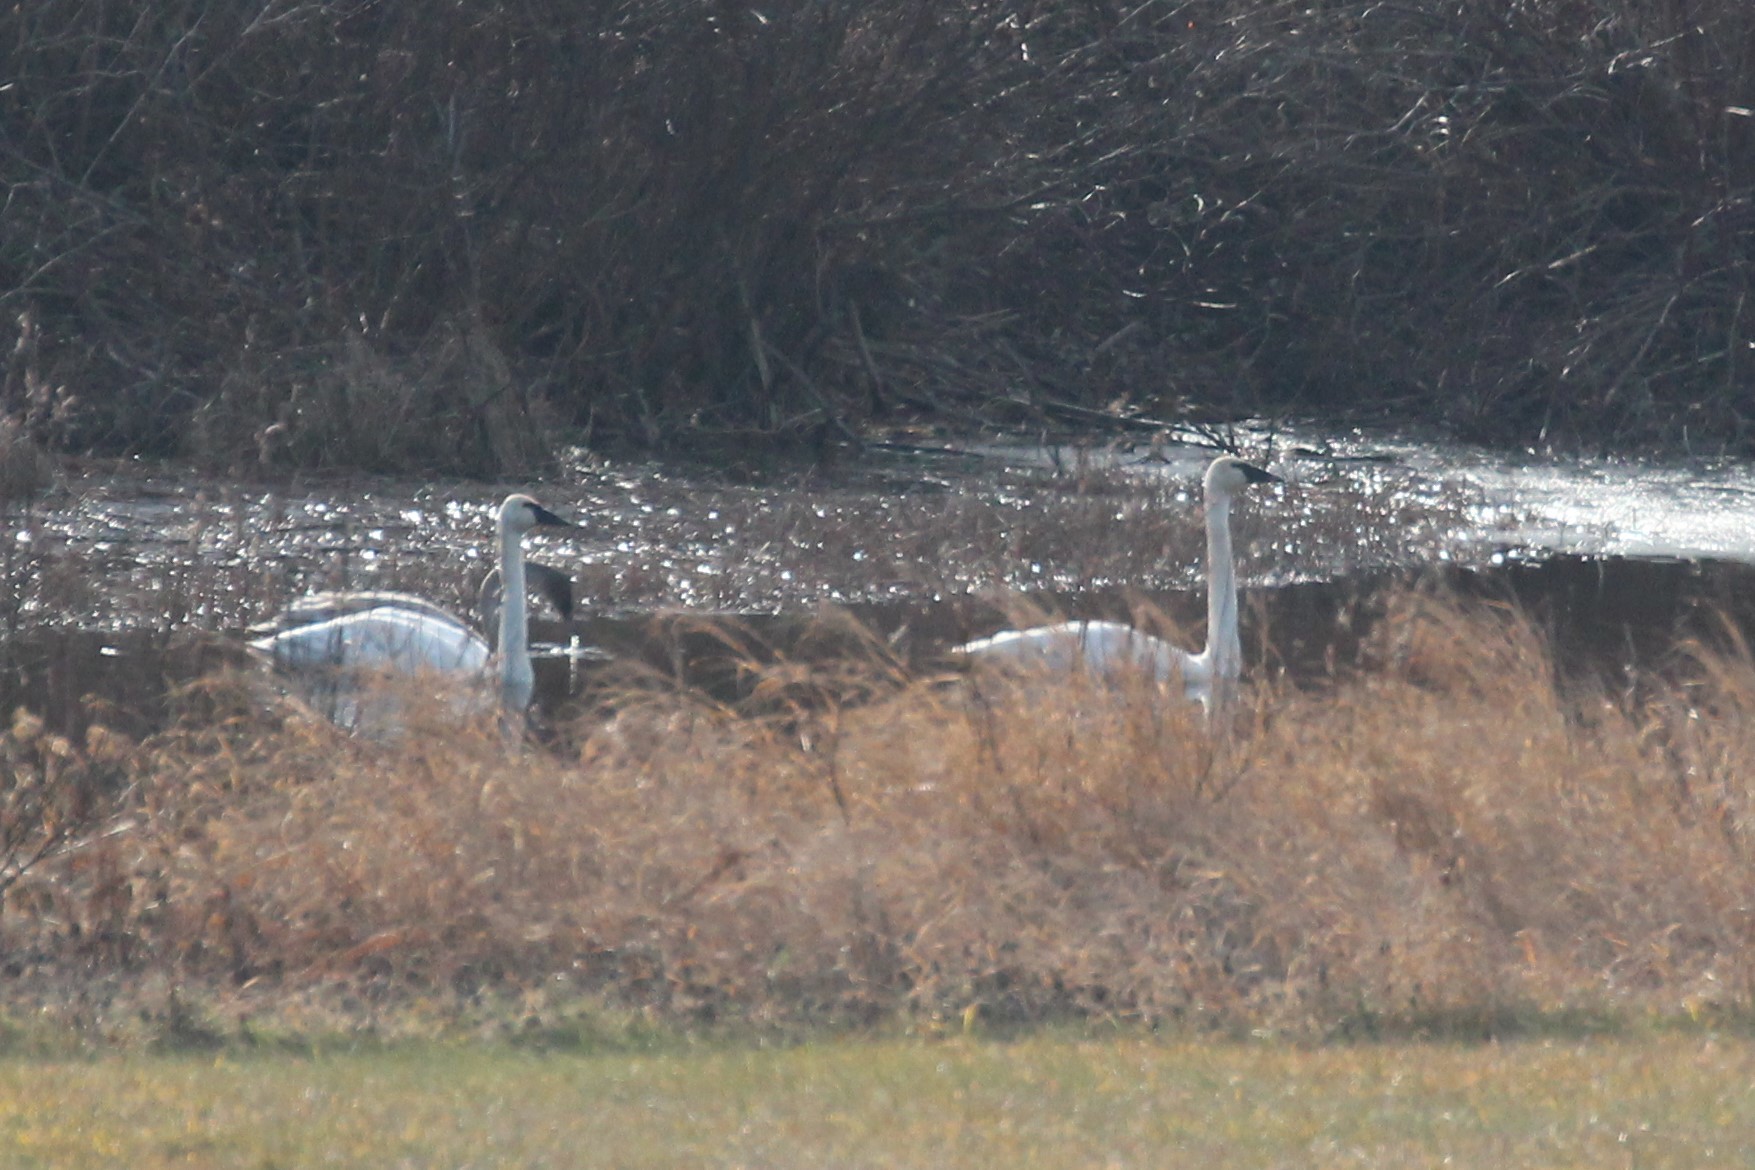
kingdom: Animalia
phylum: Chordata
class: Aves
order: Anseriformes
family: Anatidae
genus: Cygnus
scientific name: Cygnus buccinator
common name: Trumpeter swan
